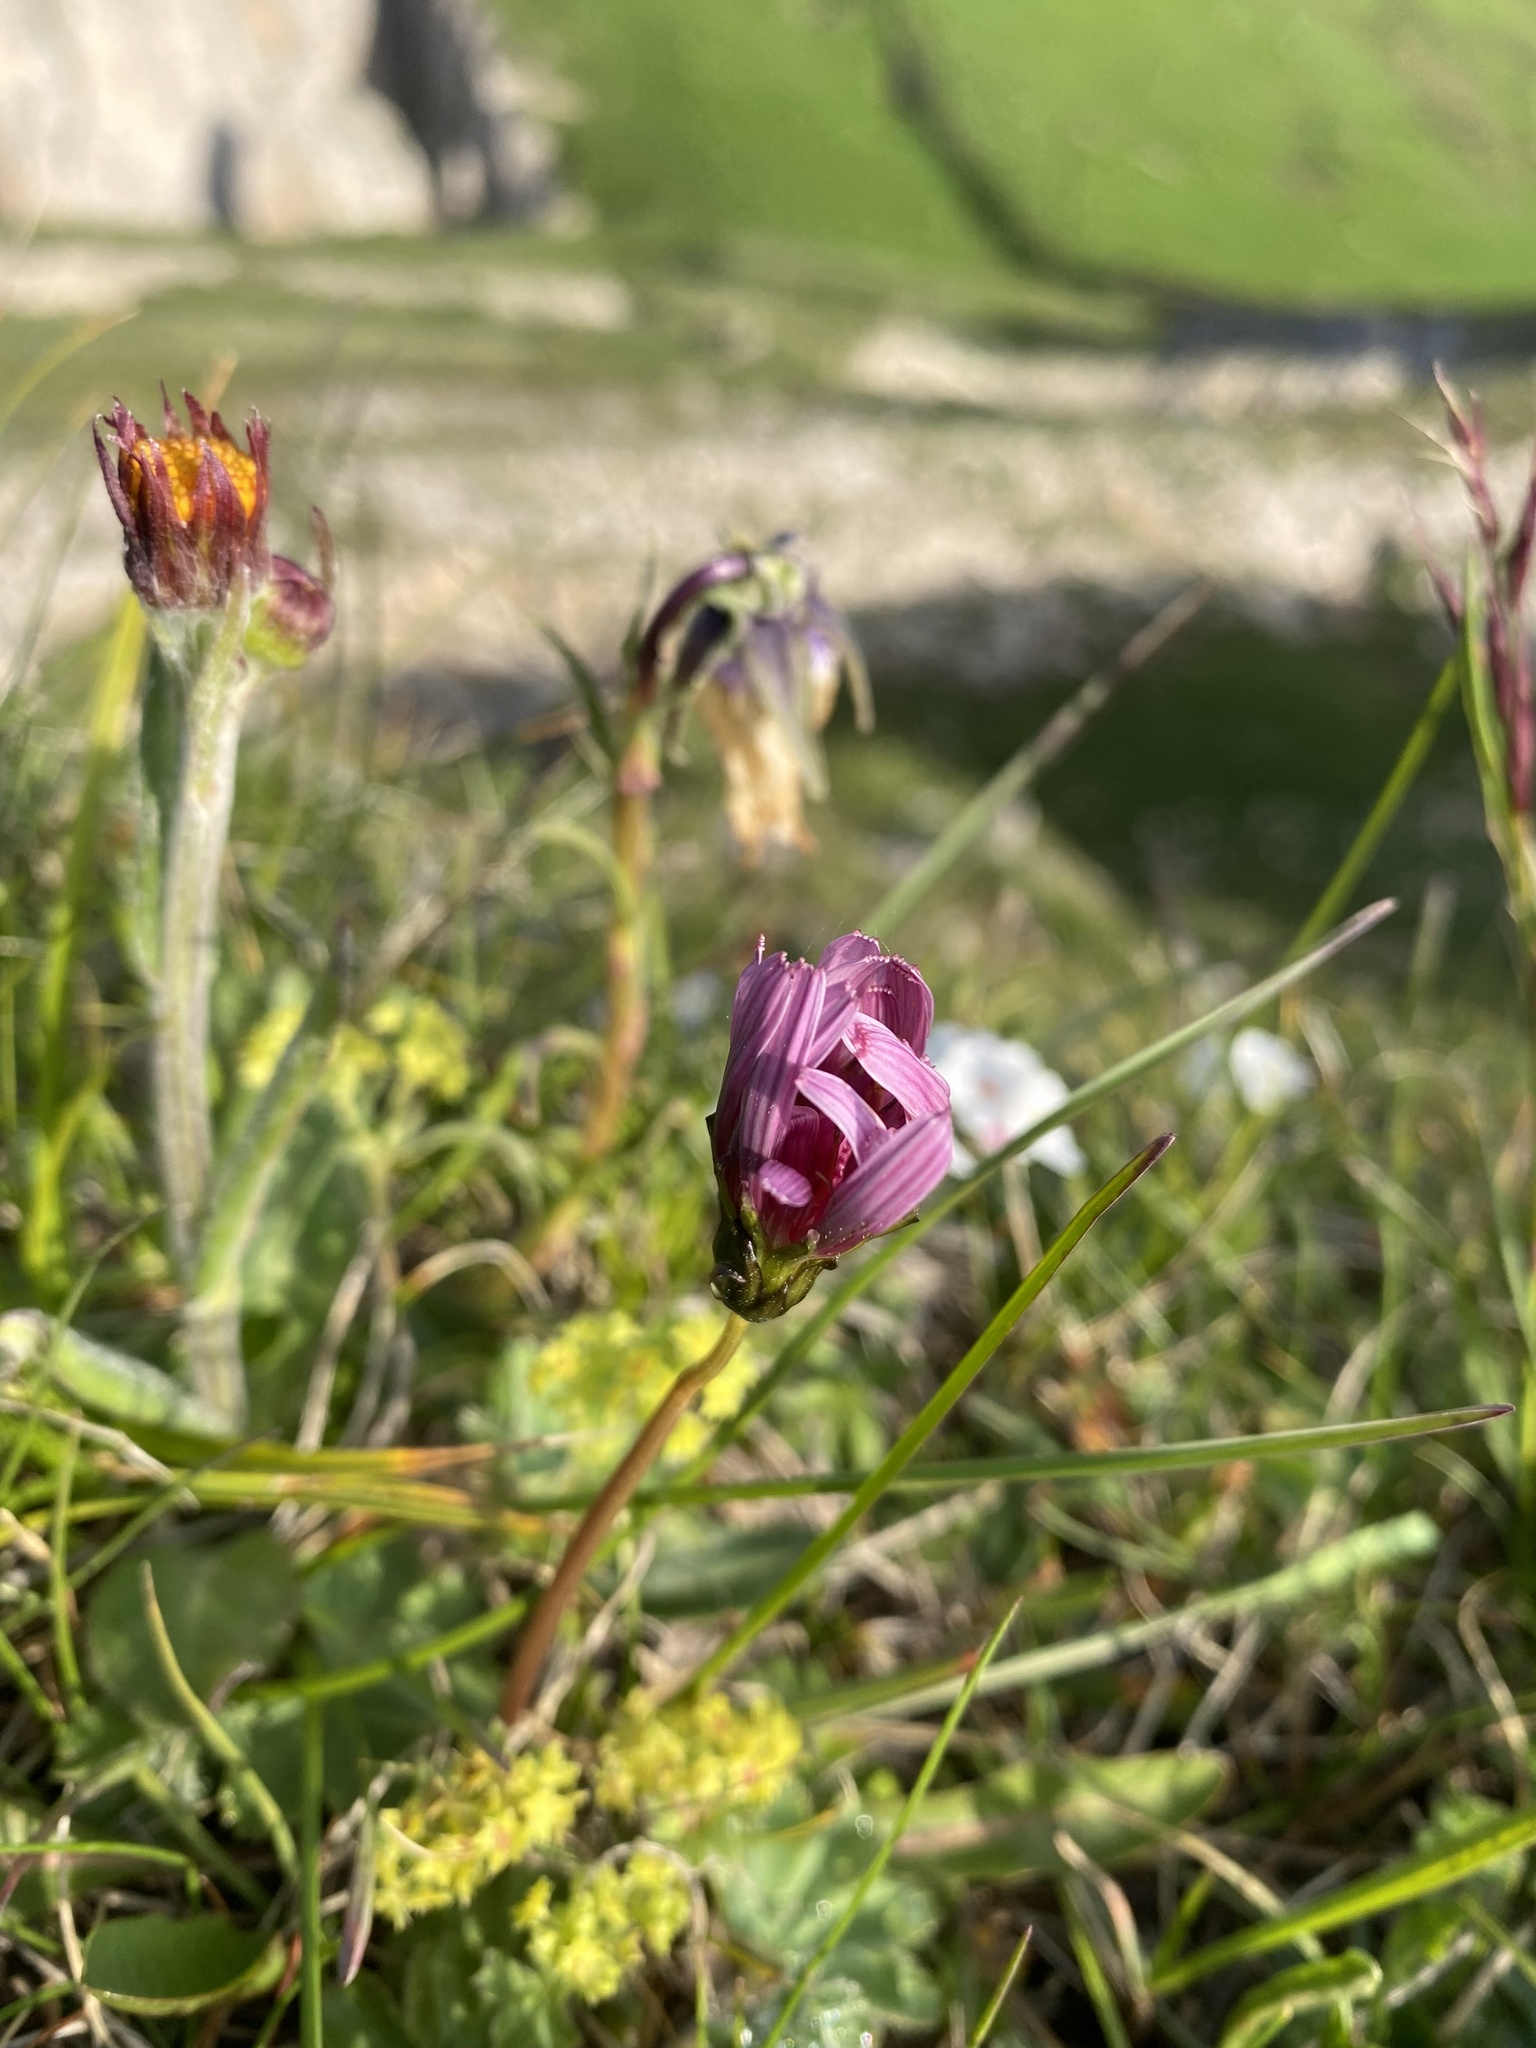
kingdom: Plantae
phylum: Tracheophyta
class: Magnoliopsida
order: Asterales
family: Asteraceae
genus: Taraxacum
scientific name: Taraxacum porphyranthum
